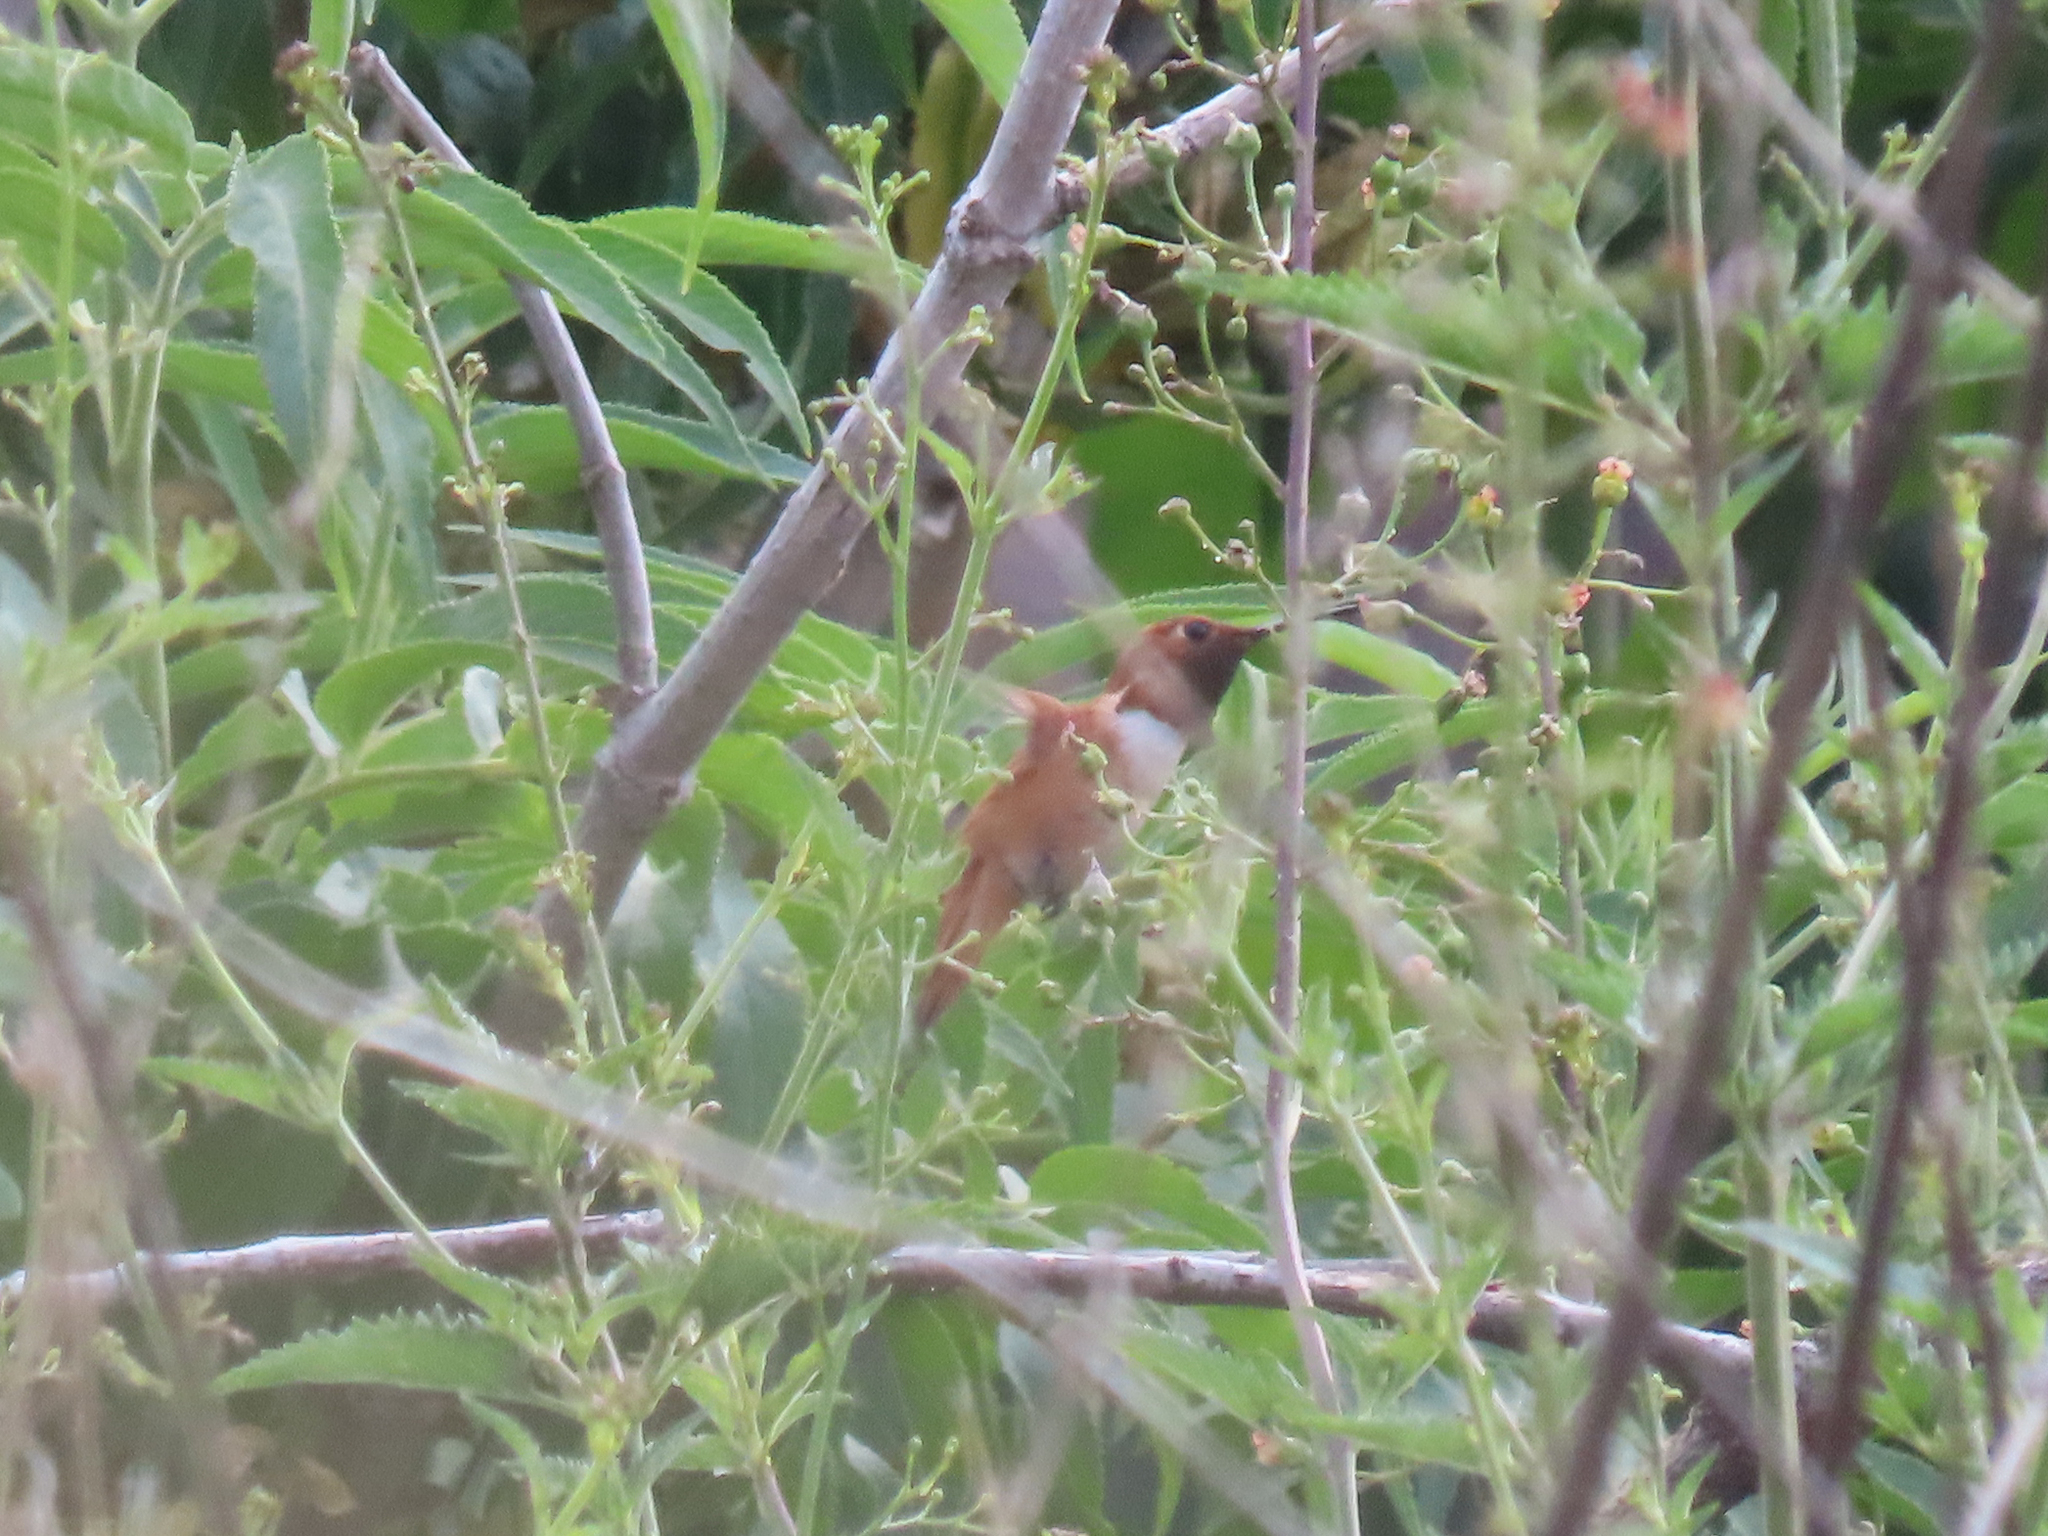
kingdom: Animalia
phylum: Chordata
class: Aves
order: Apodiformes
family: Trochilidae
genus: Selasphorus
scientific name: Selasphorus rufus
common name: Rufous hummingbird
